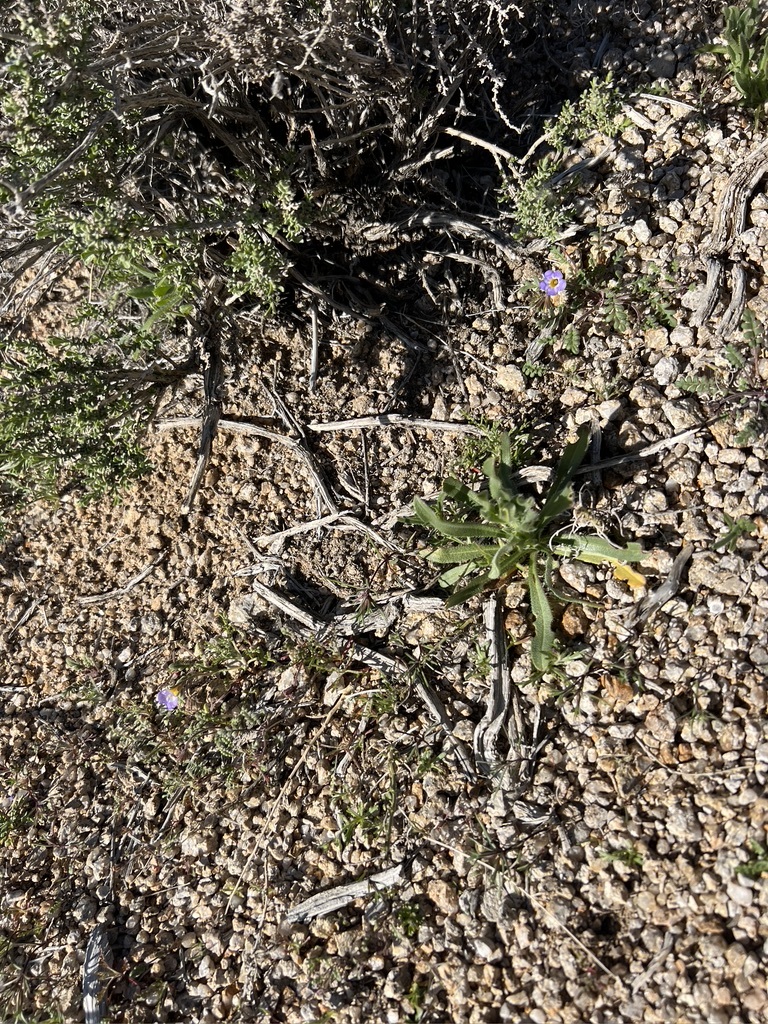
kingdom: Plantae
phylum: Tracheophyta
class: Magnoliopsida
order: Boraginales
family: Hydrophyllaceae
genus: Phacelia
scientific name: Phacelia fremontii
